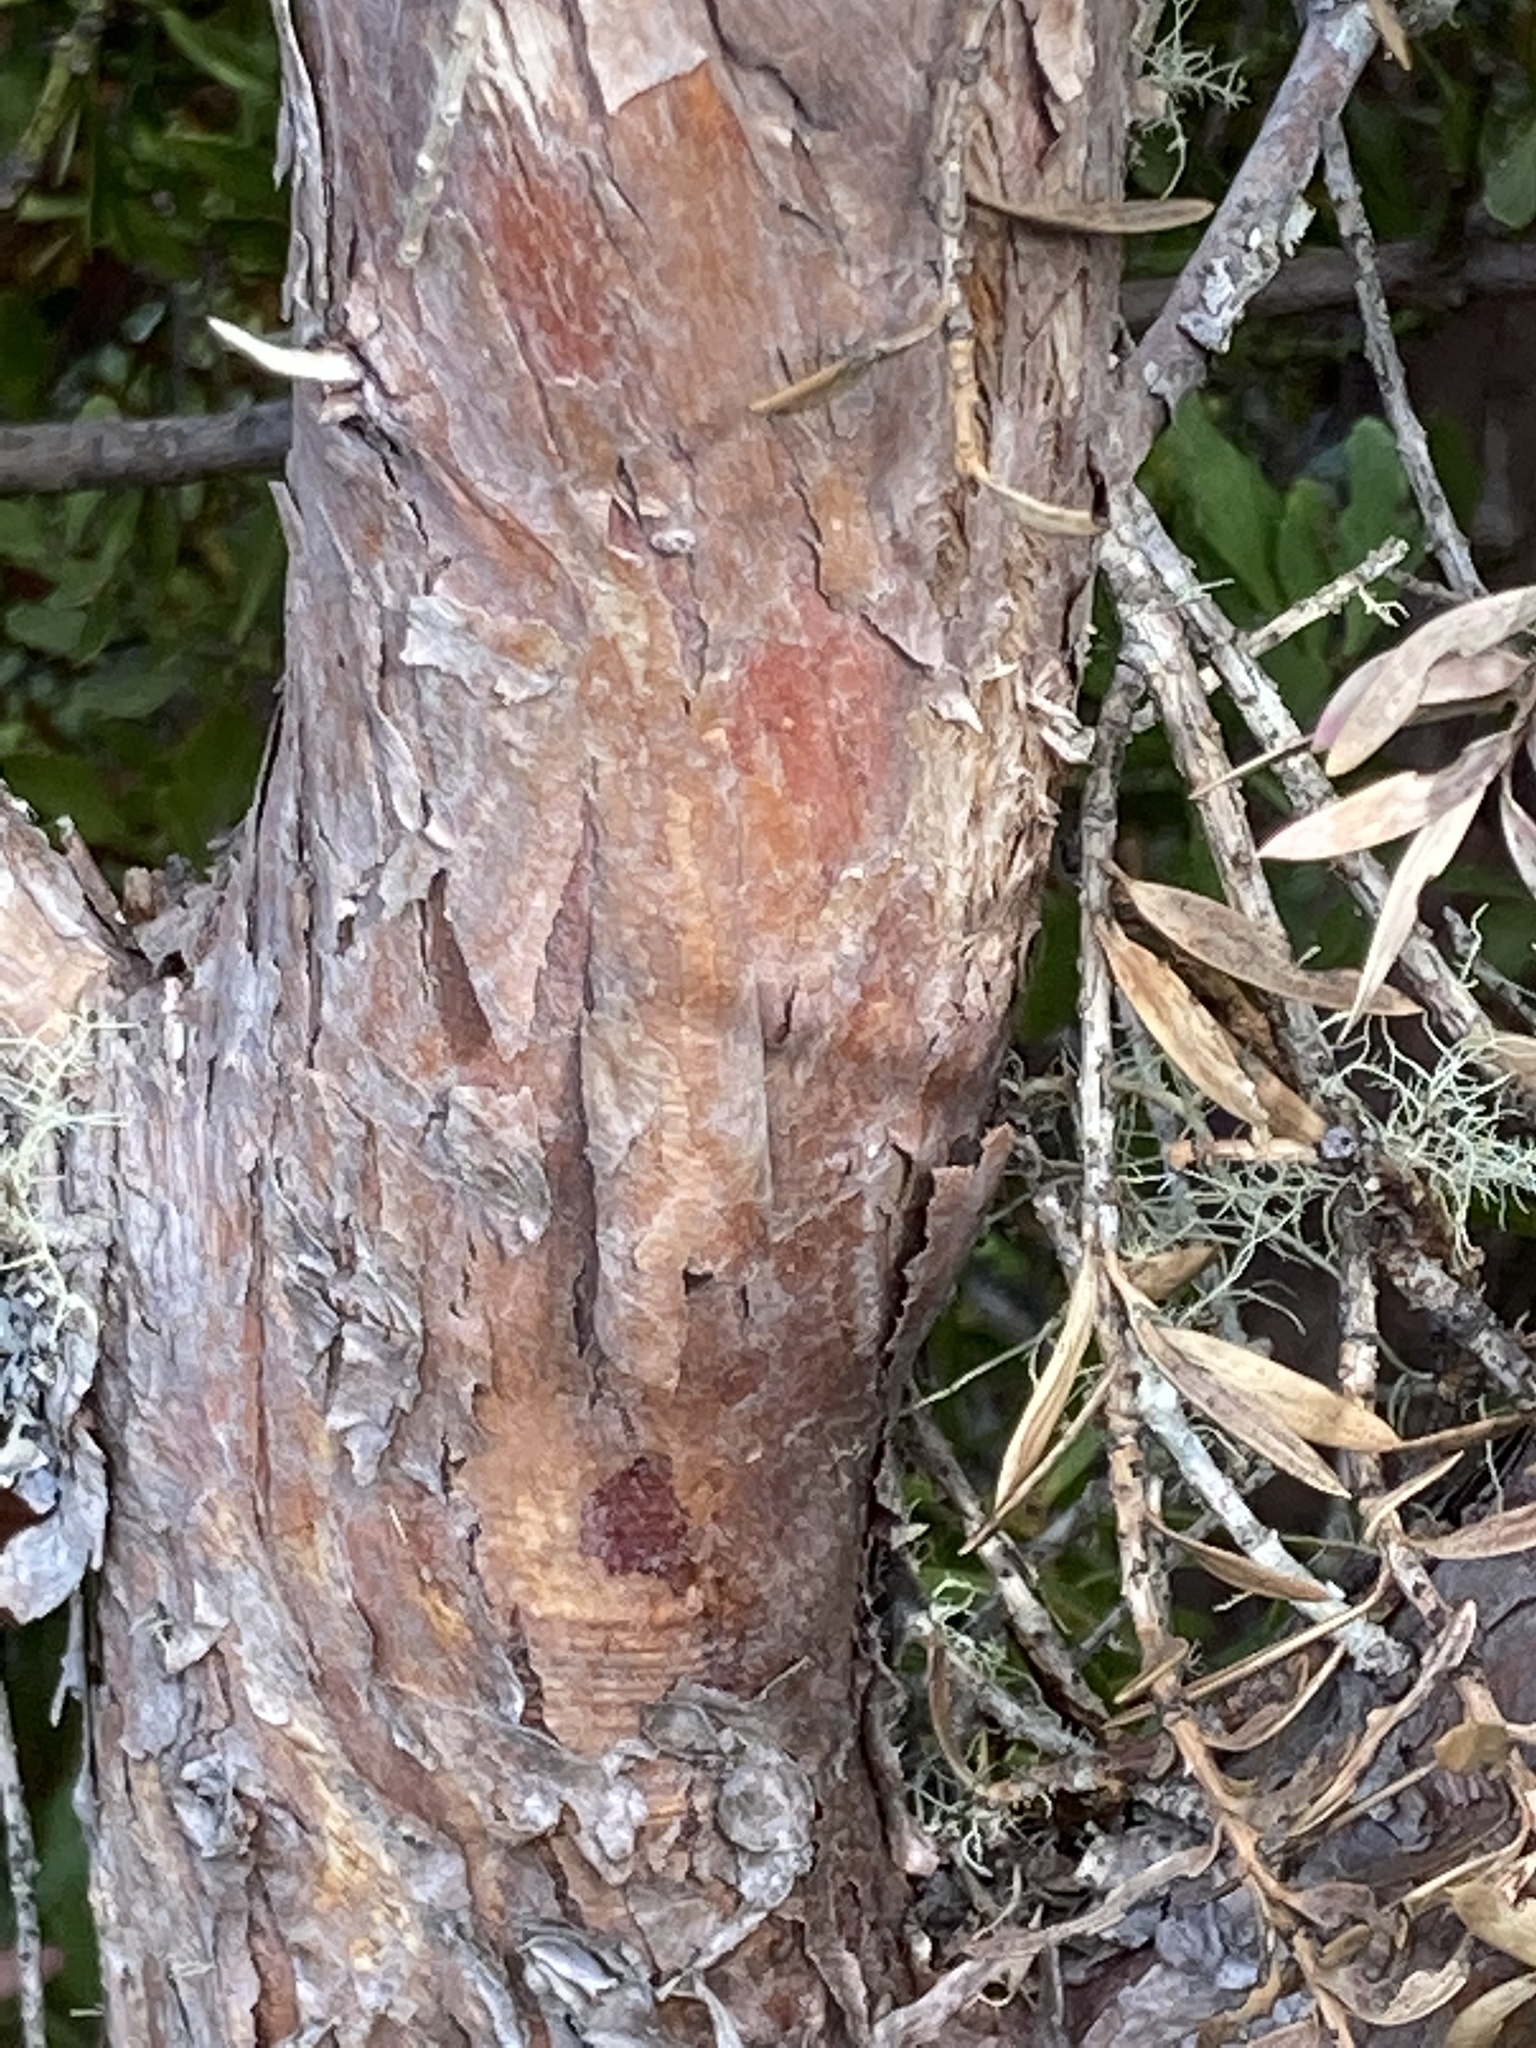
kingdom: Plantae
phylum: Tracheophyta
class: Pinopsida
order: Pinales
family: Podocarpaceae
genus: Podocarpus
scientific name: Podocarpus laetus
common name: Hall's totara
